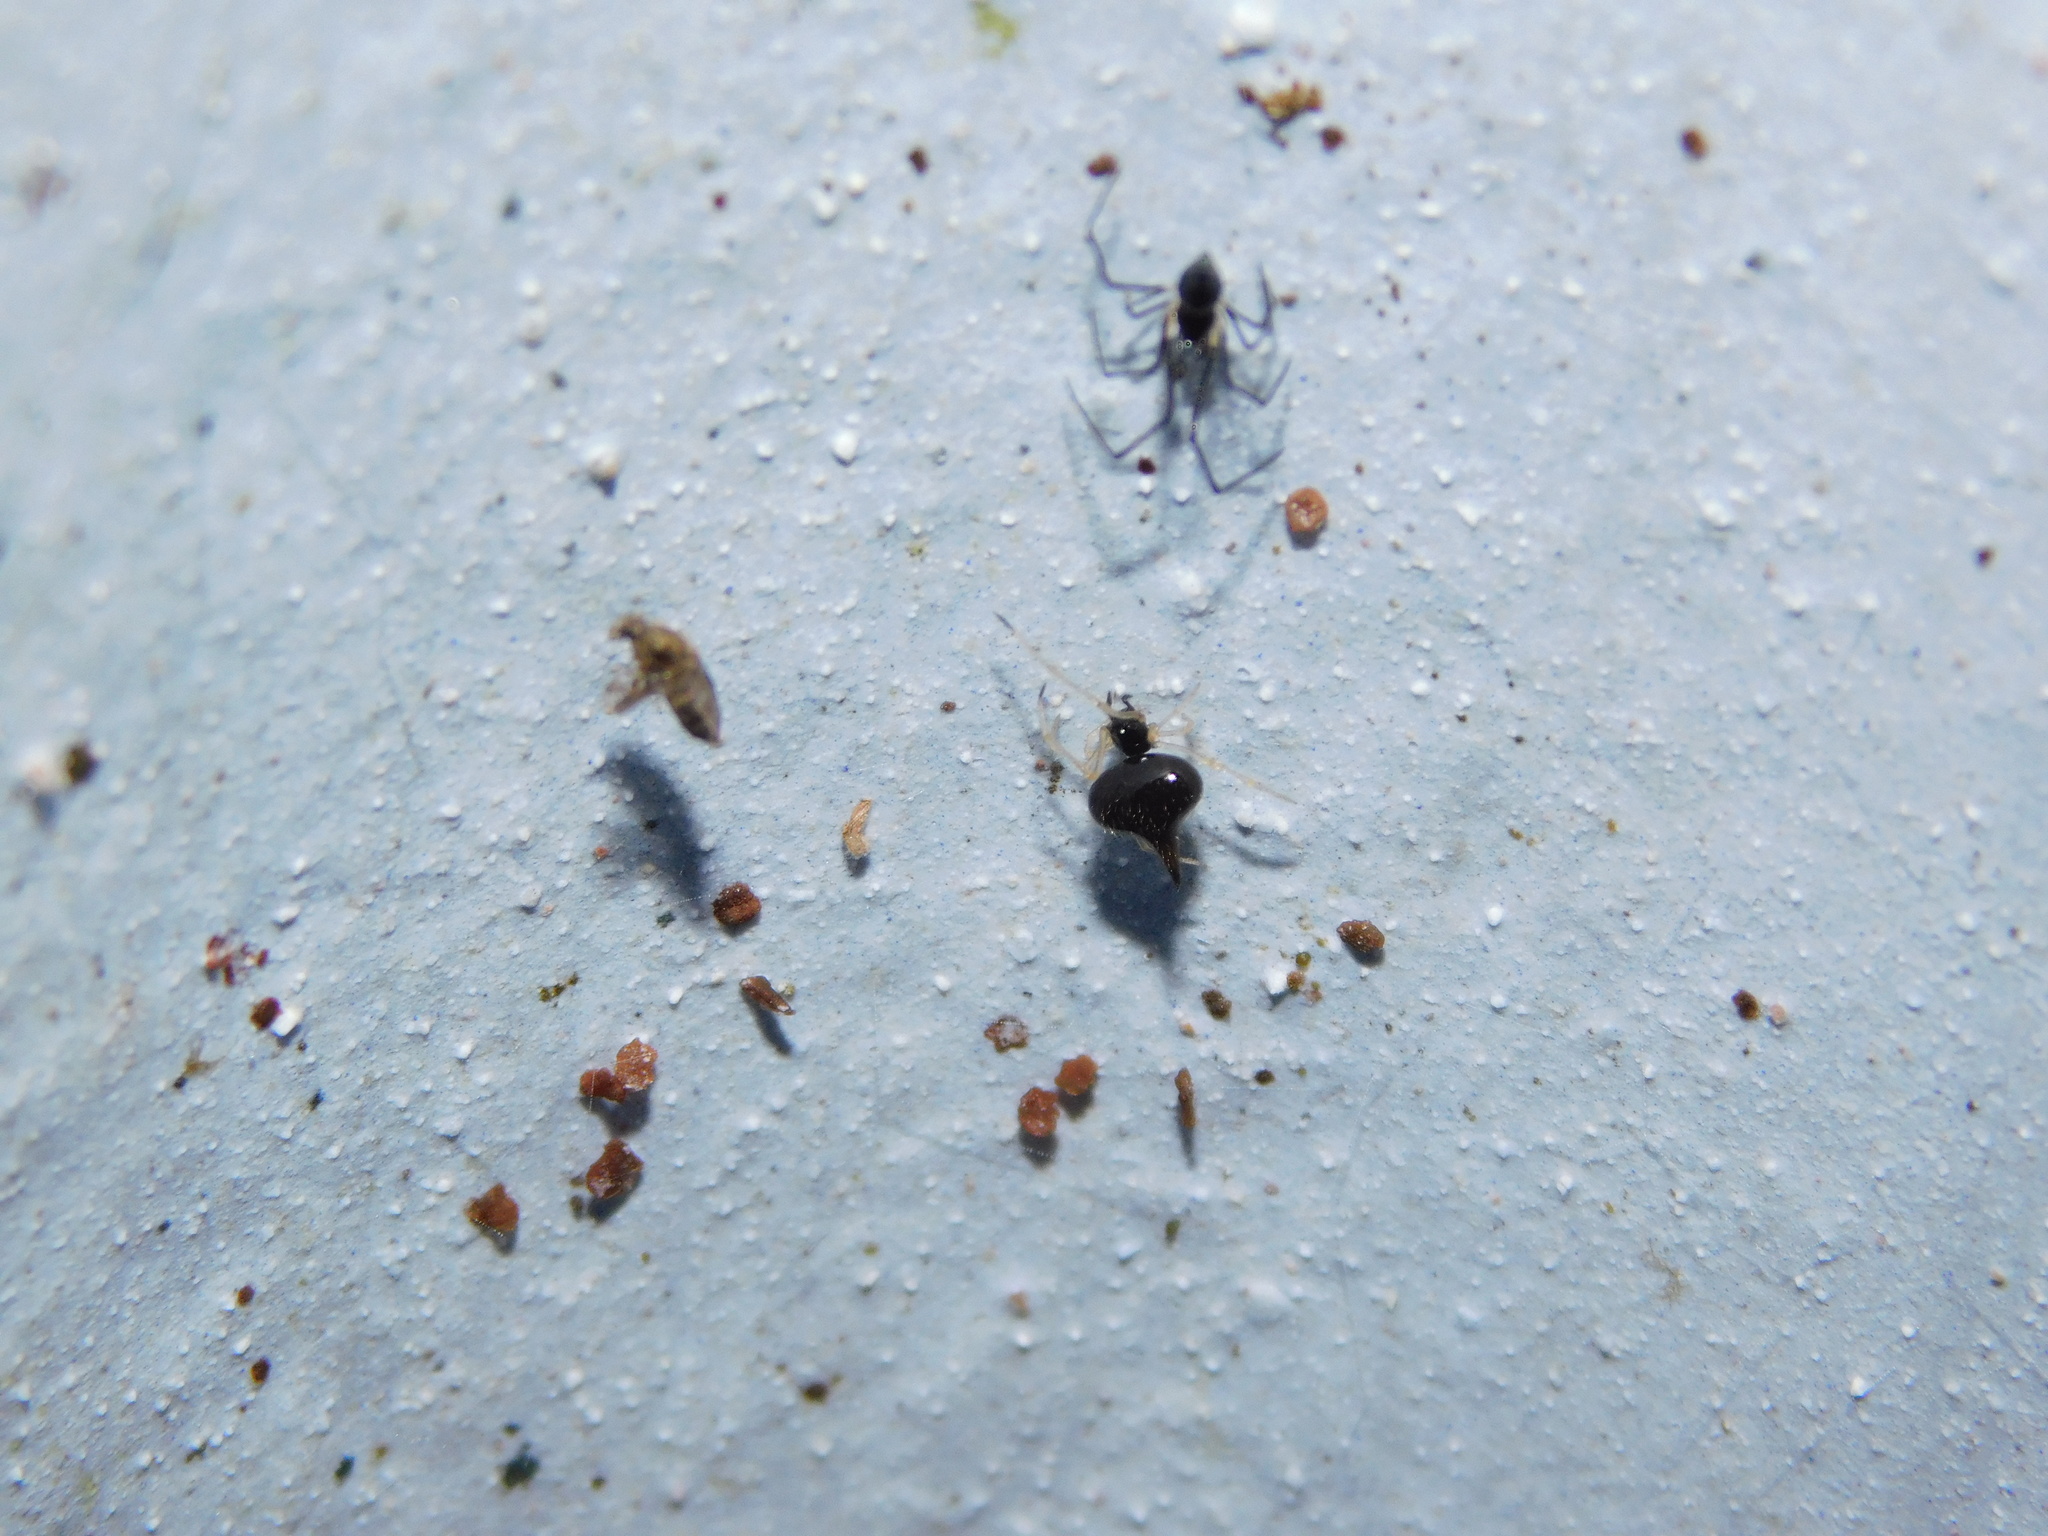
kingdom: Animalia
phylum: Arthropoda
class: Arachnida
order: Araneae
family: Theridiidae
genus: Chikunia
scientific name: Chikunia nigra
